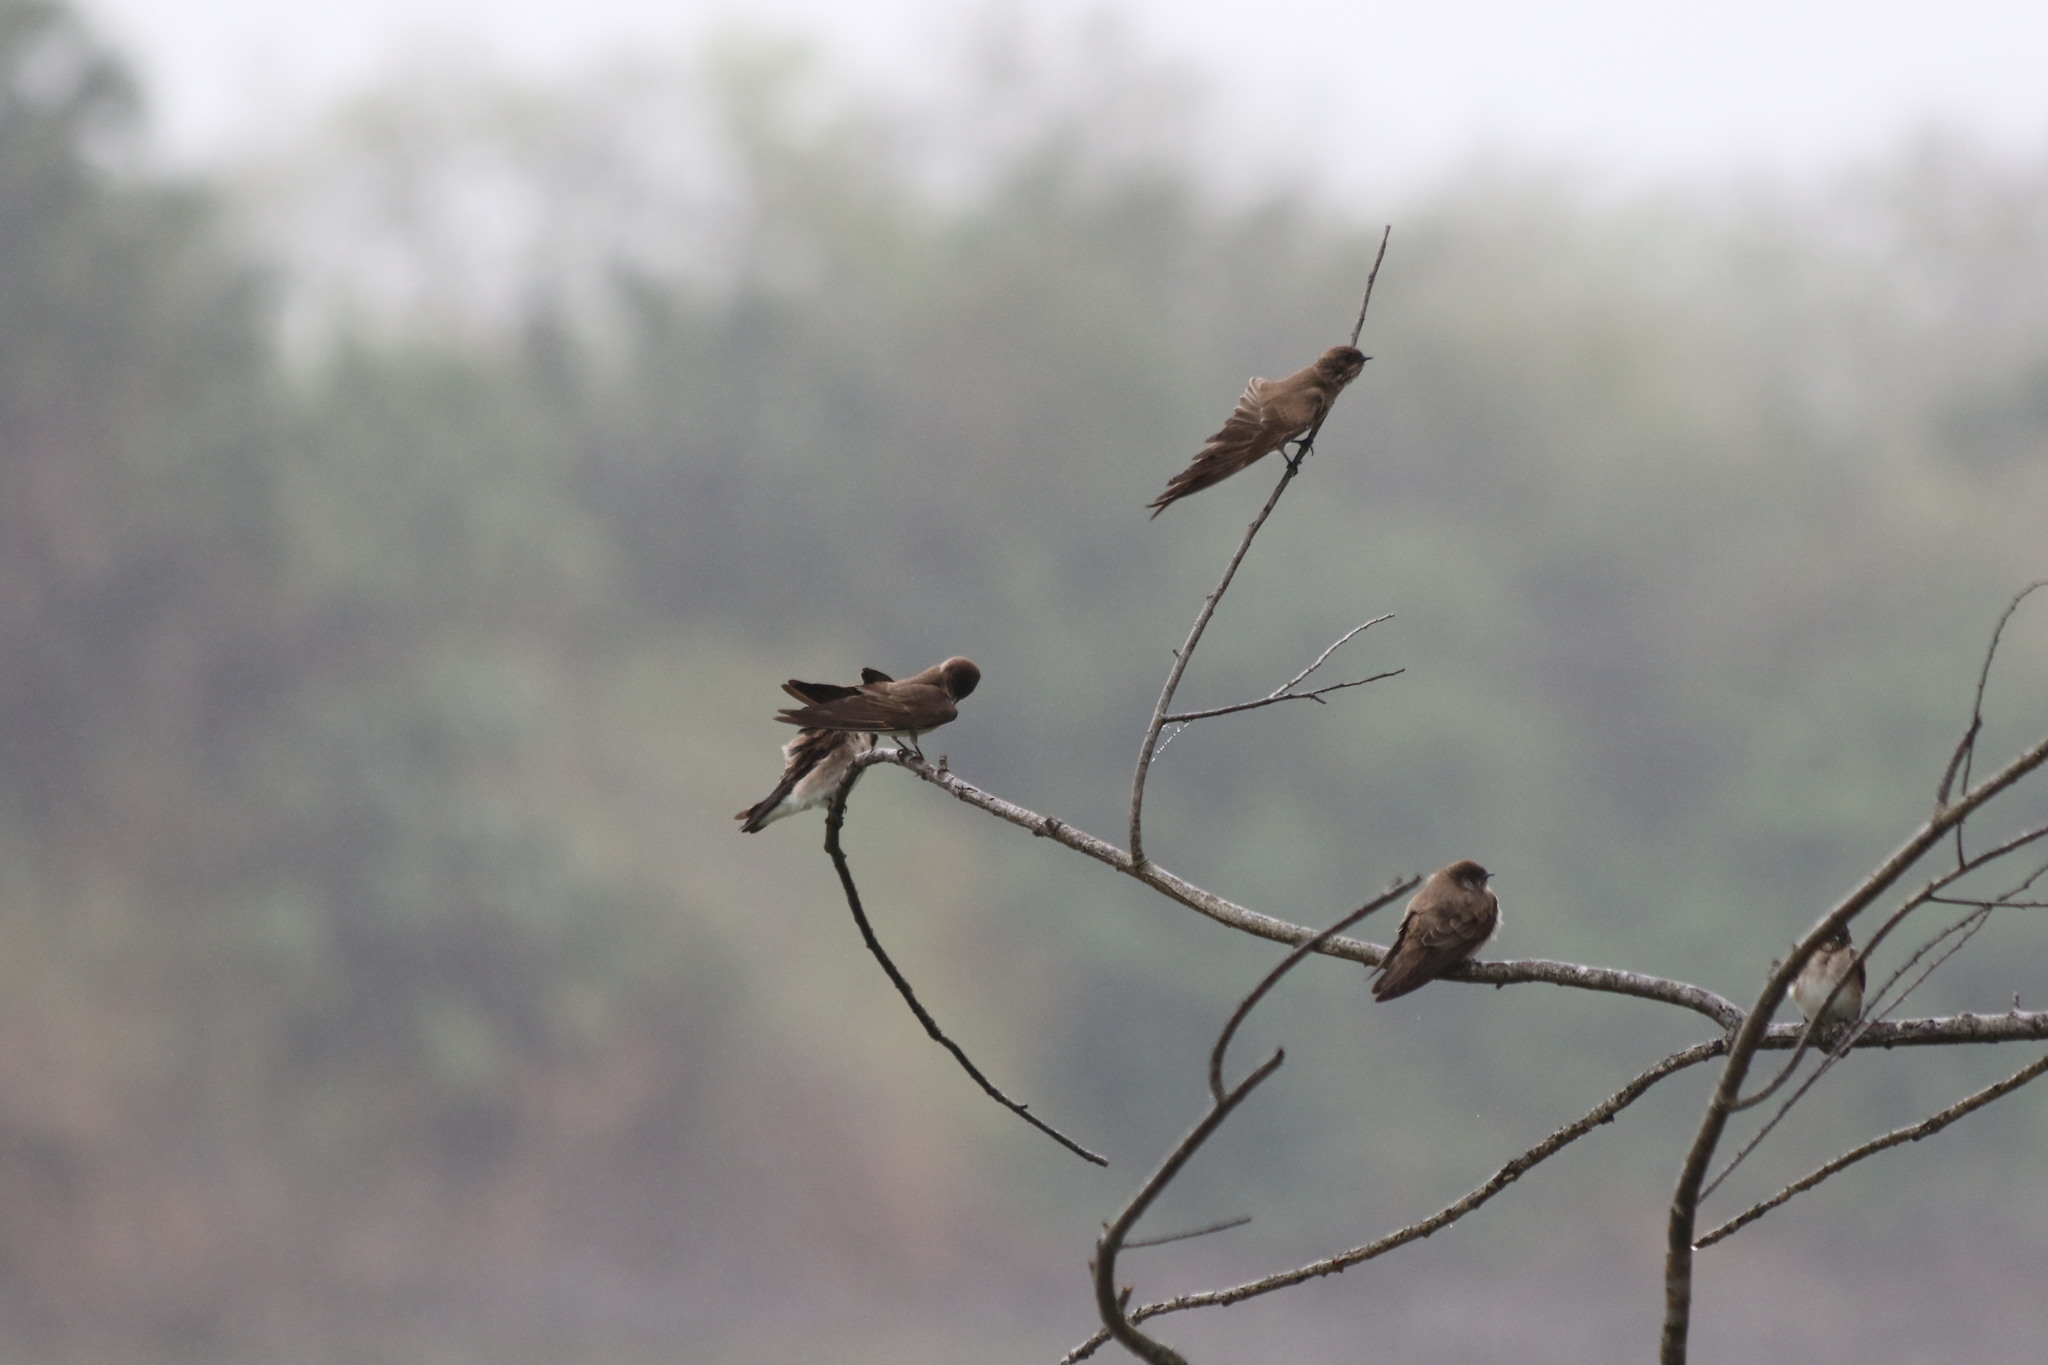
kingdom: Animalia
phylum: Chordata
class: Aves
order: Passeriformes
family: Hirundinidae
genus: Stelgidopteryx
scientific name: Stelgidopteryx serripennis
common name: Northern rough-winged swallow
